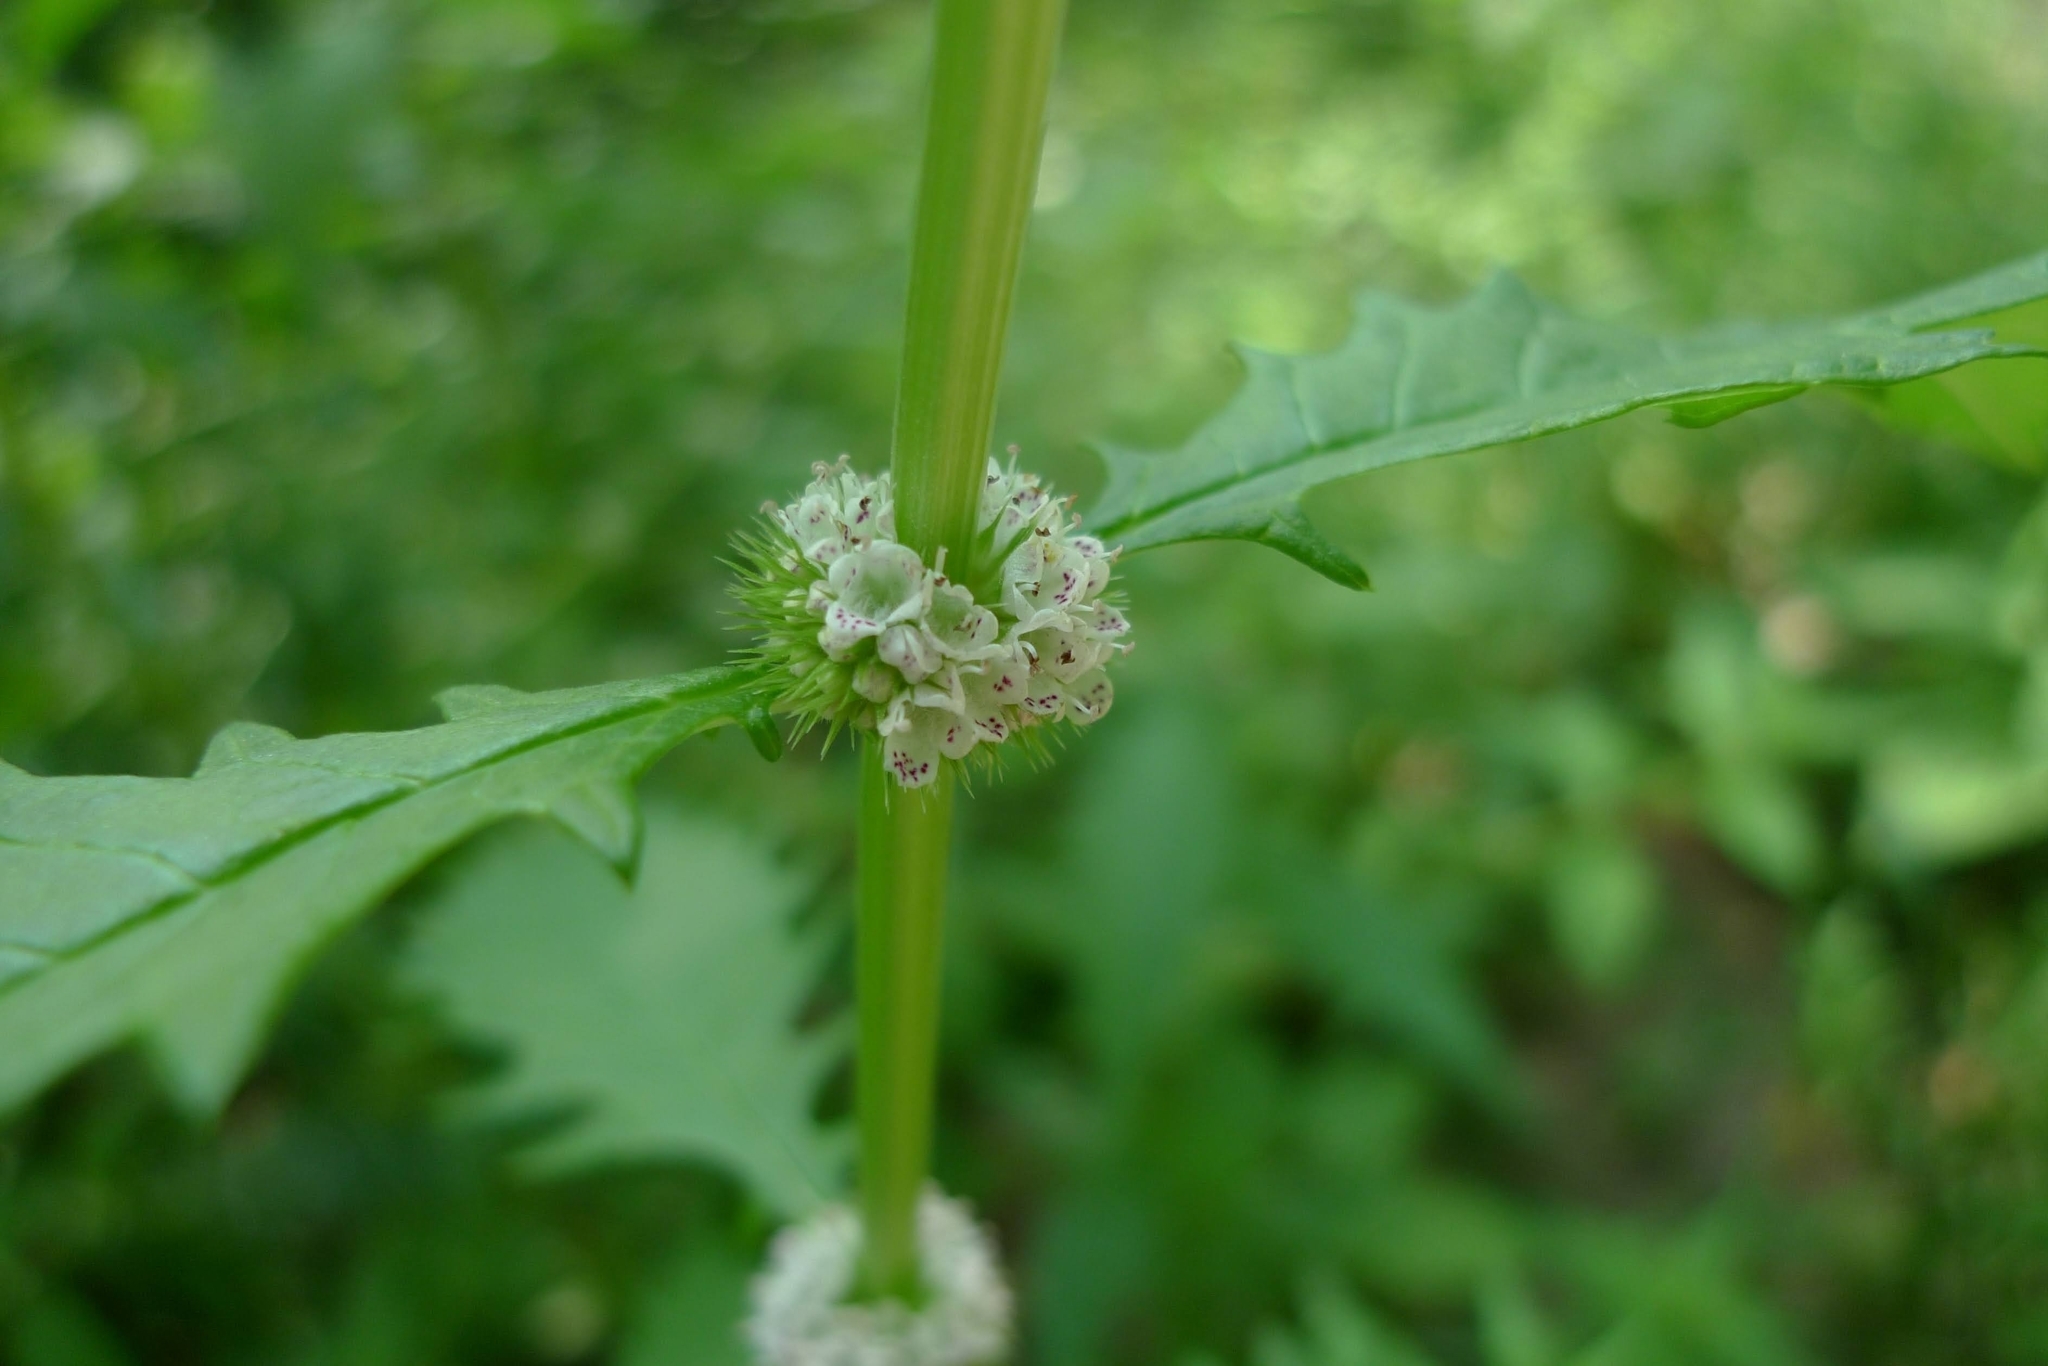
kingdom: Plantae
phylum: Tracheophyta
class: Magnoliopsida
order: Lamiales
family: Lamiaceae
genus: Lycopus
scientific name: Lycopus europaeus
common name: European bugleweed
